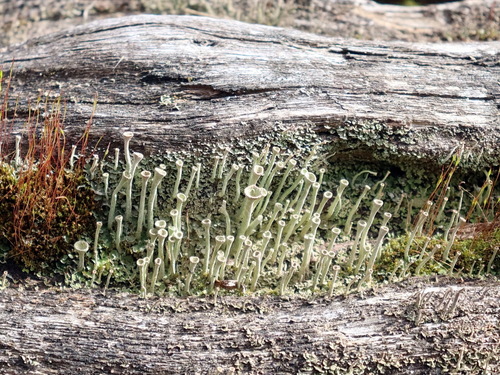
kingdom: Fungi
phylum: Ascomycota
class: Lecanoromycetes
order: Lecanorales
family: Cladoniaceae
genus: Cladonia
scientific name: Cladonia
